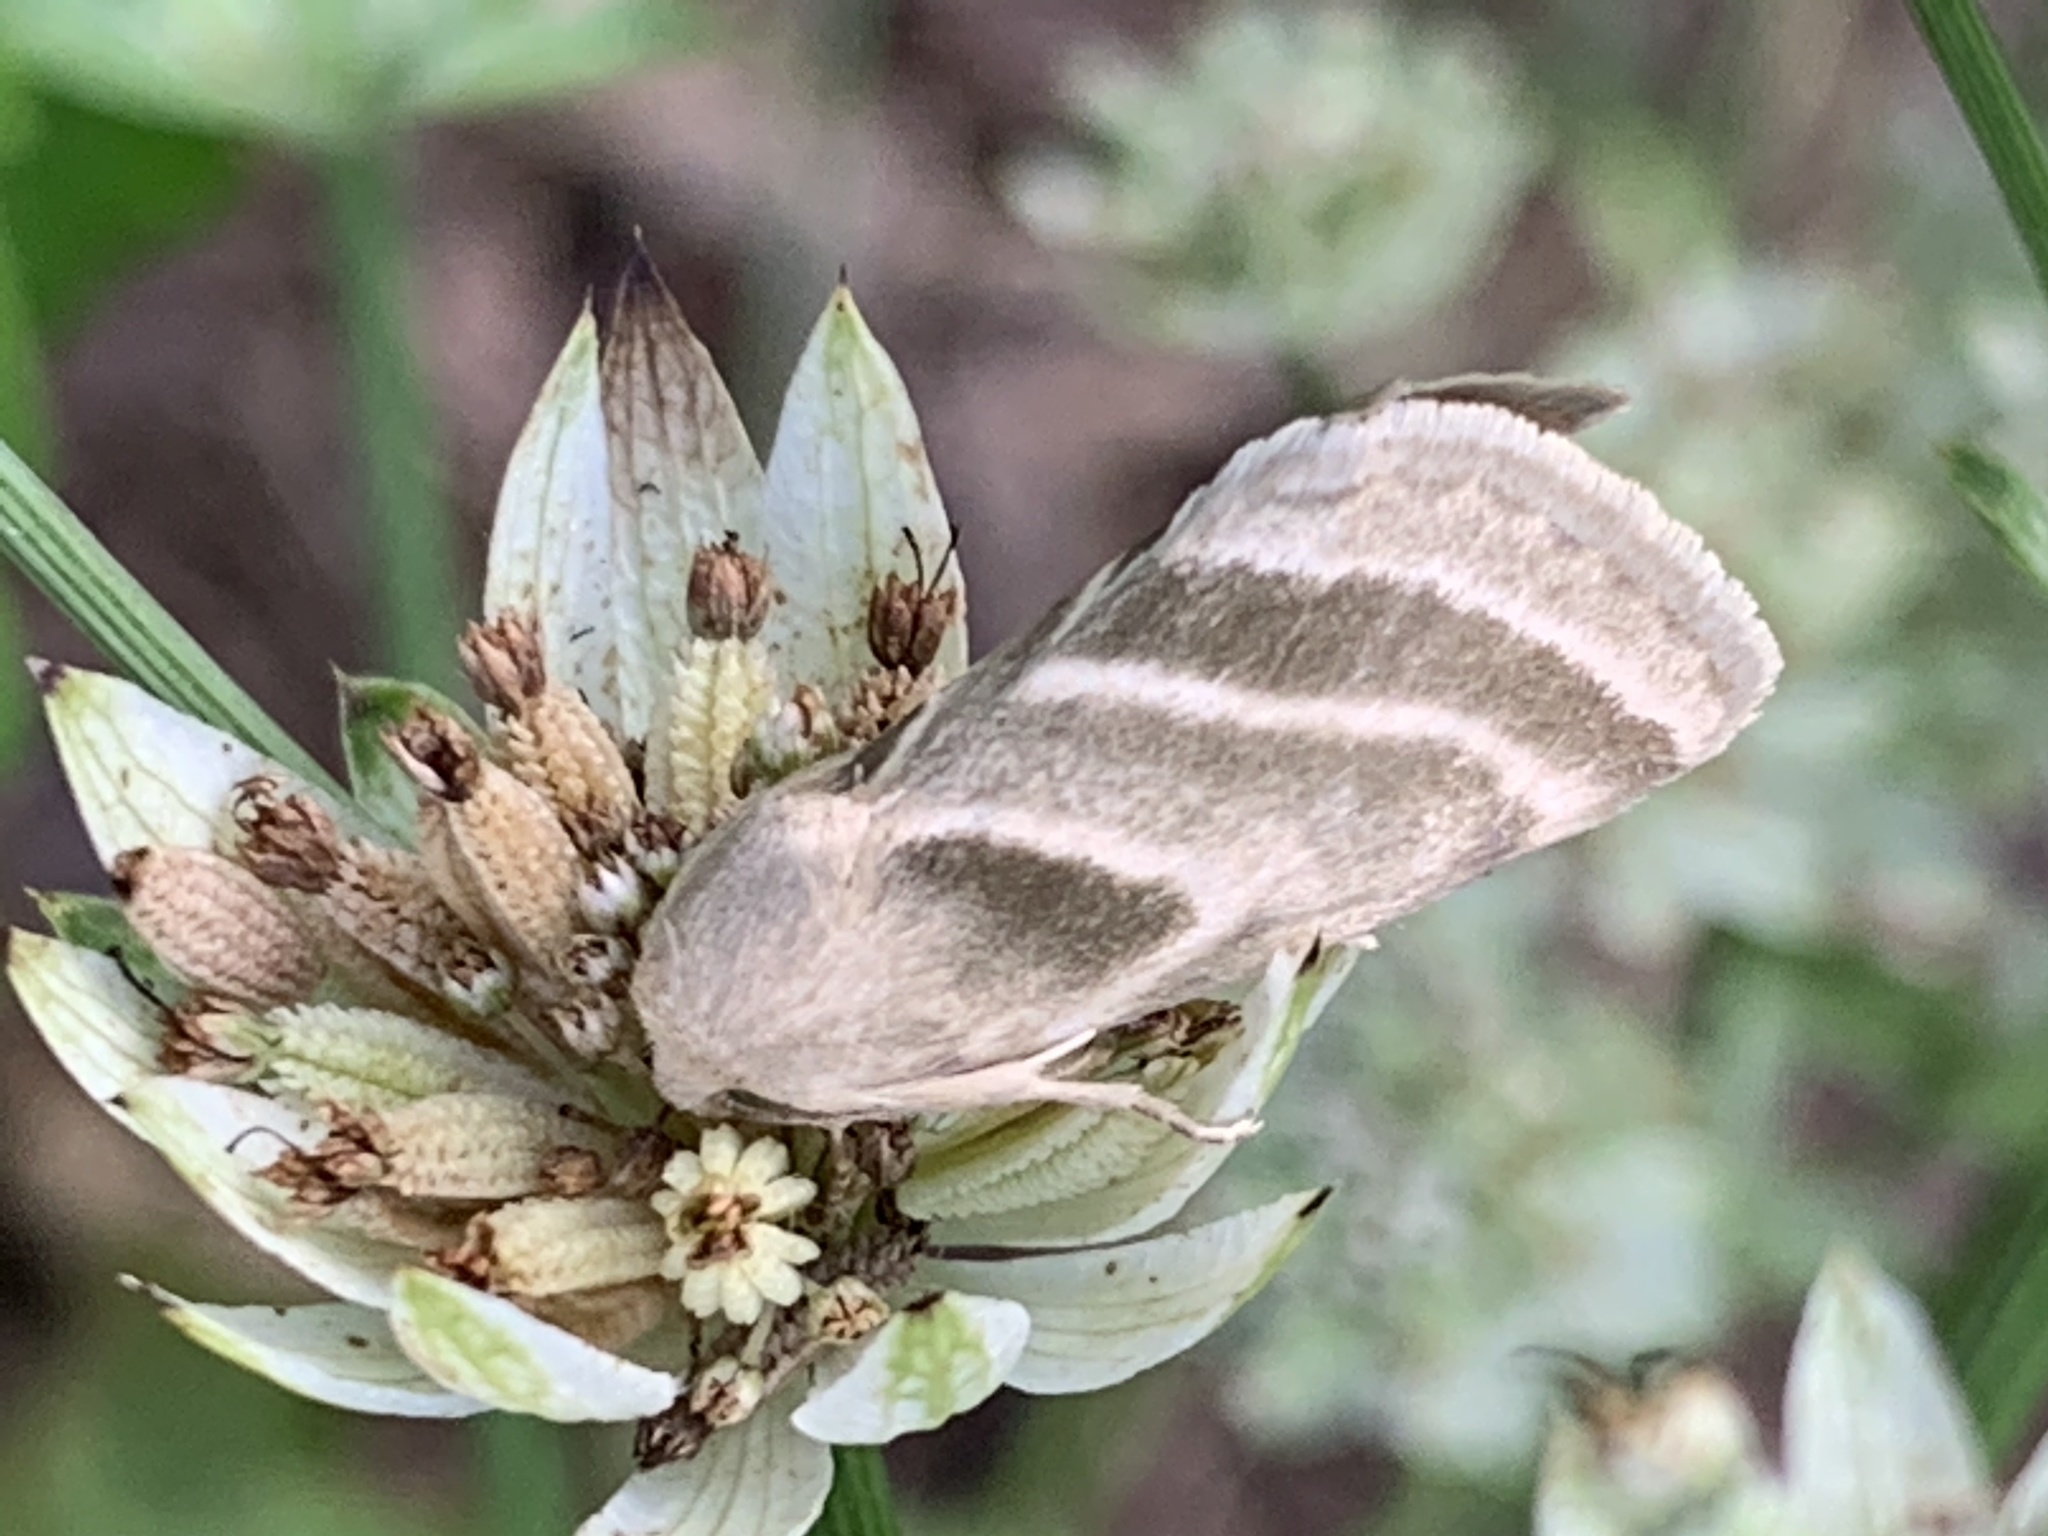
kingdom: Animalia
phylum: Arthropoda
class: Insecta
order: Lepidoptera
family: Noctuidae
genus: Schinia
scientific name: Schinia trifascia
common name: Three-lined flower moth
